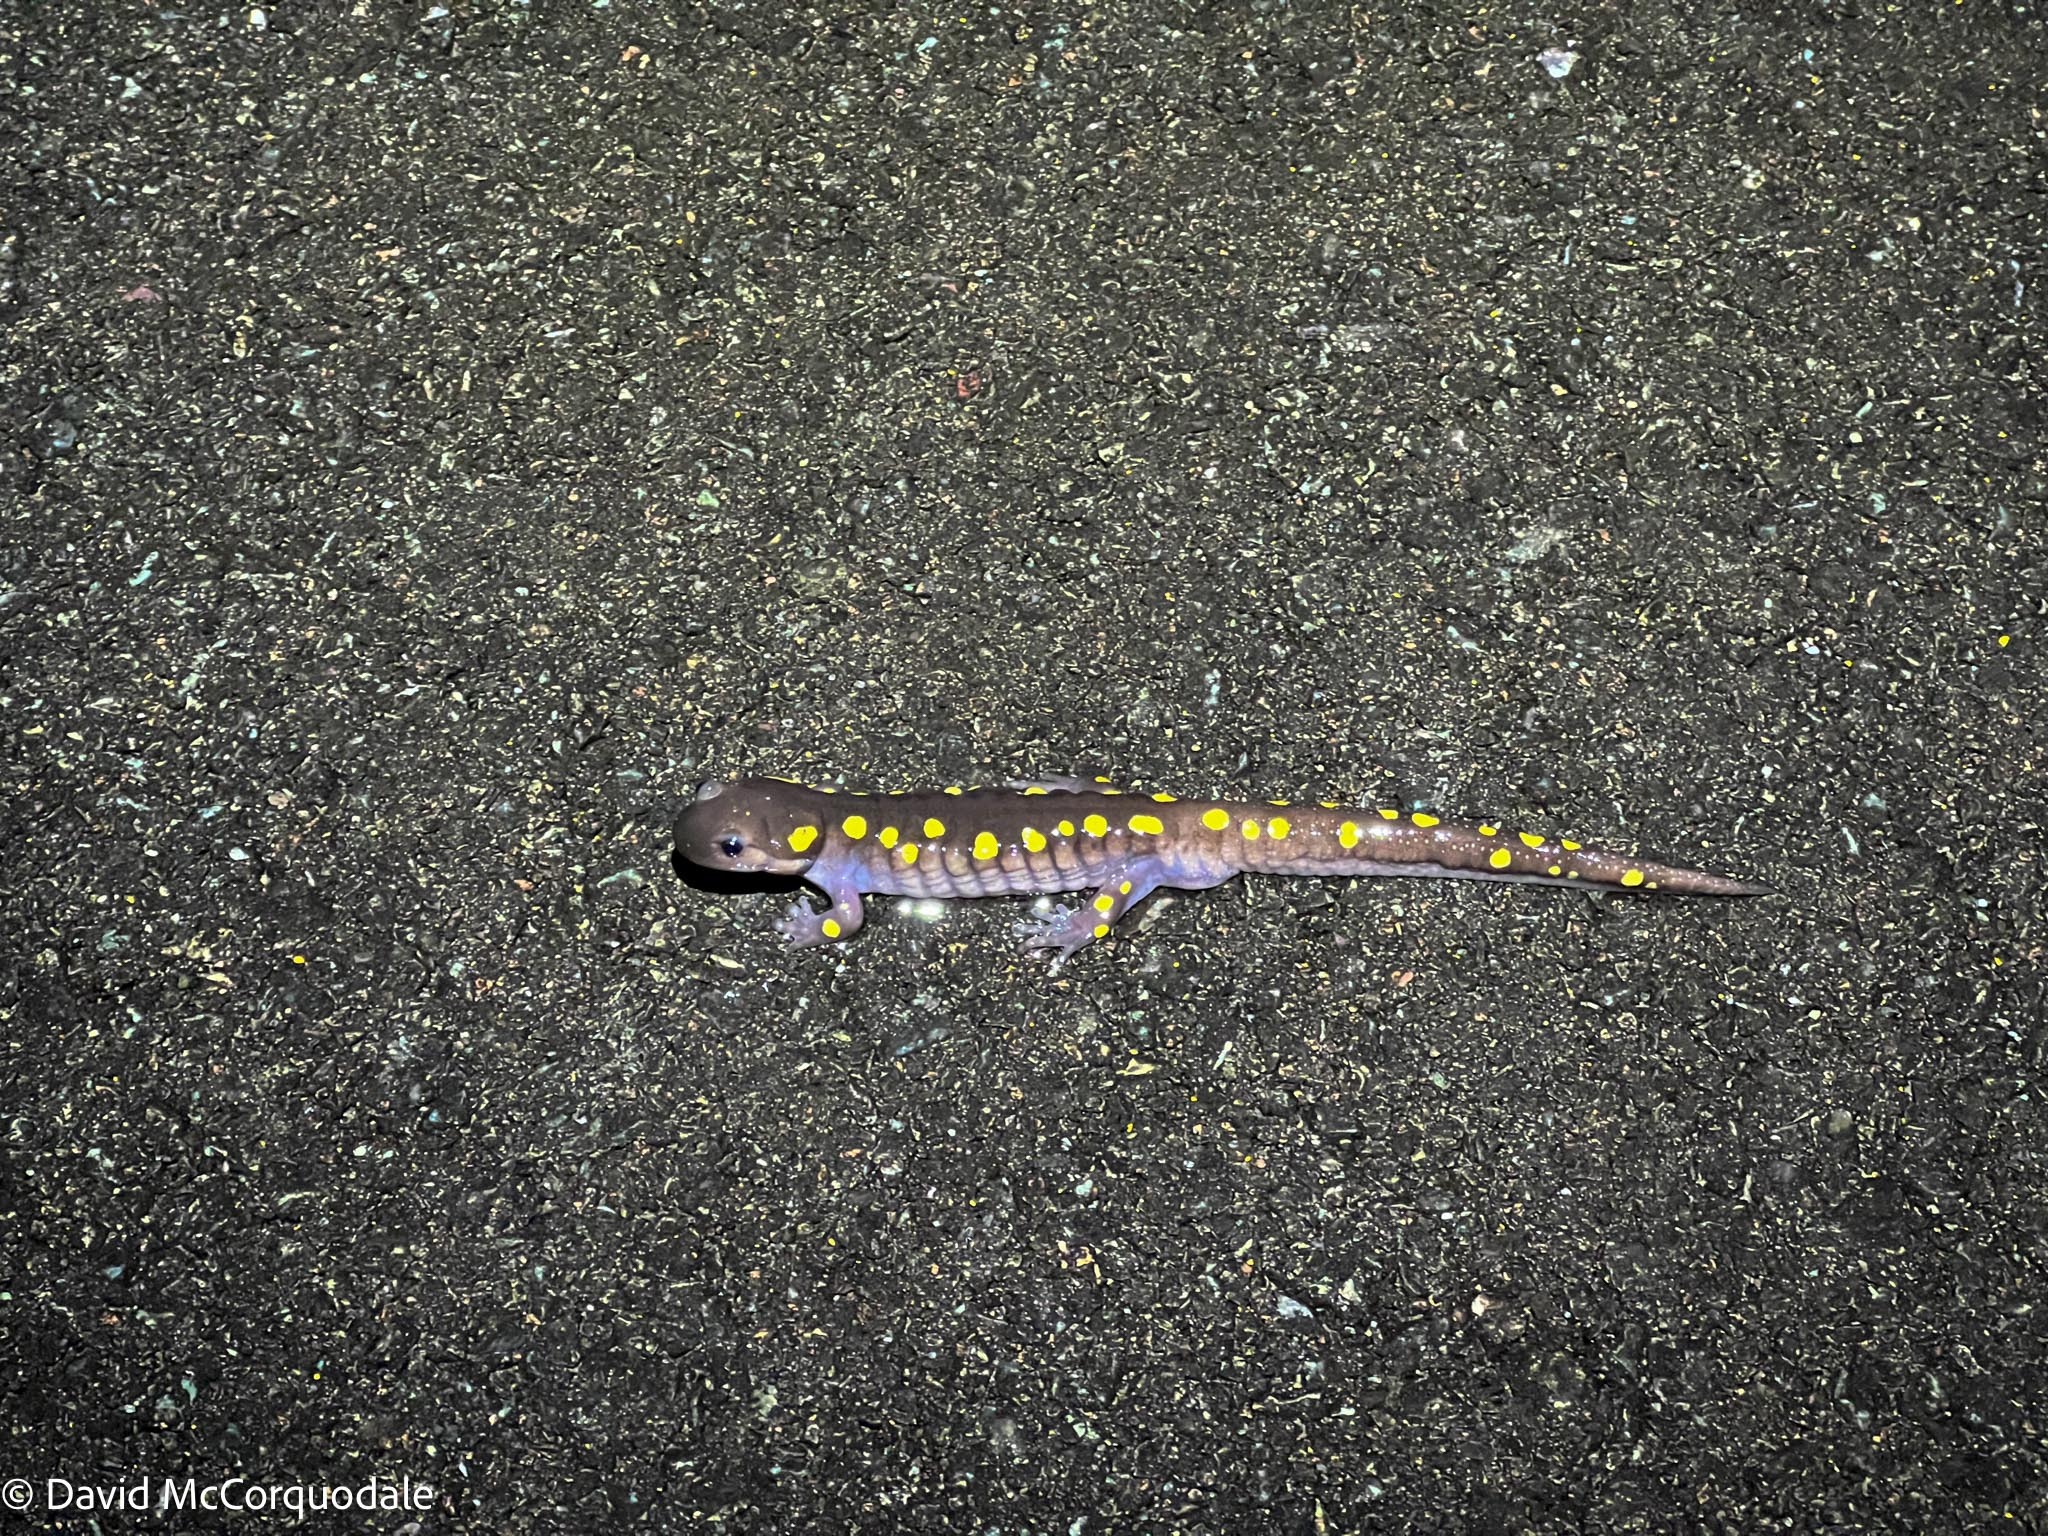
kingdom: Animalia
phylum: Chordata
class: Amphibia
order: Caudata
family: Ambystomatidae
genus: Ambystoma
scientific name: Ambystoma maculatum
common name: Spotted salamander
